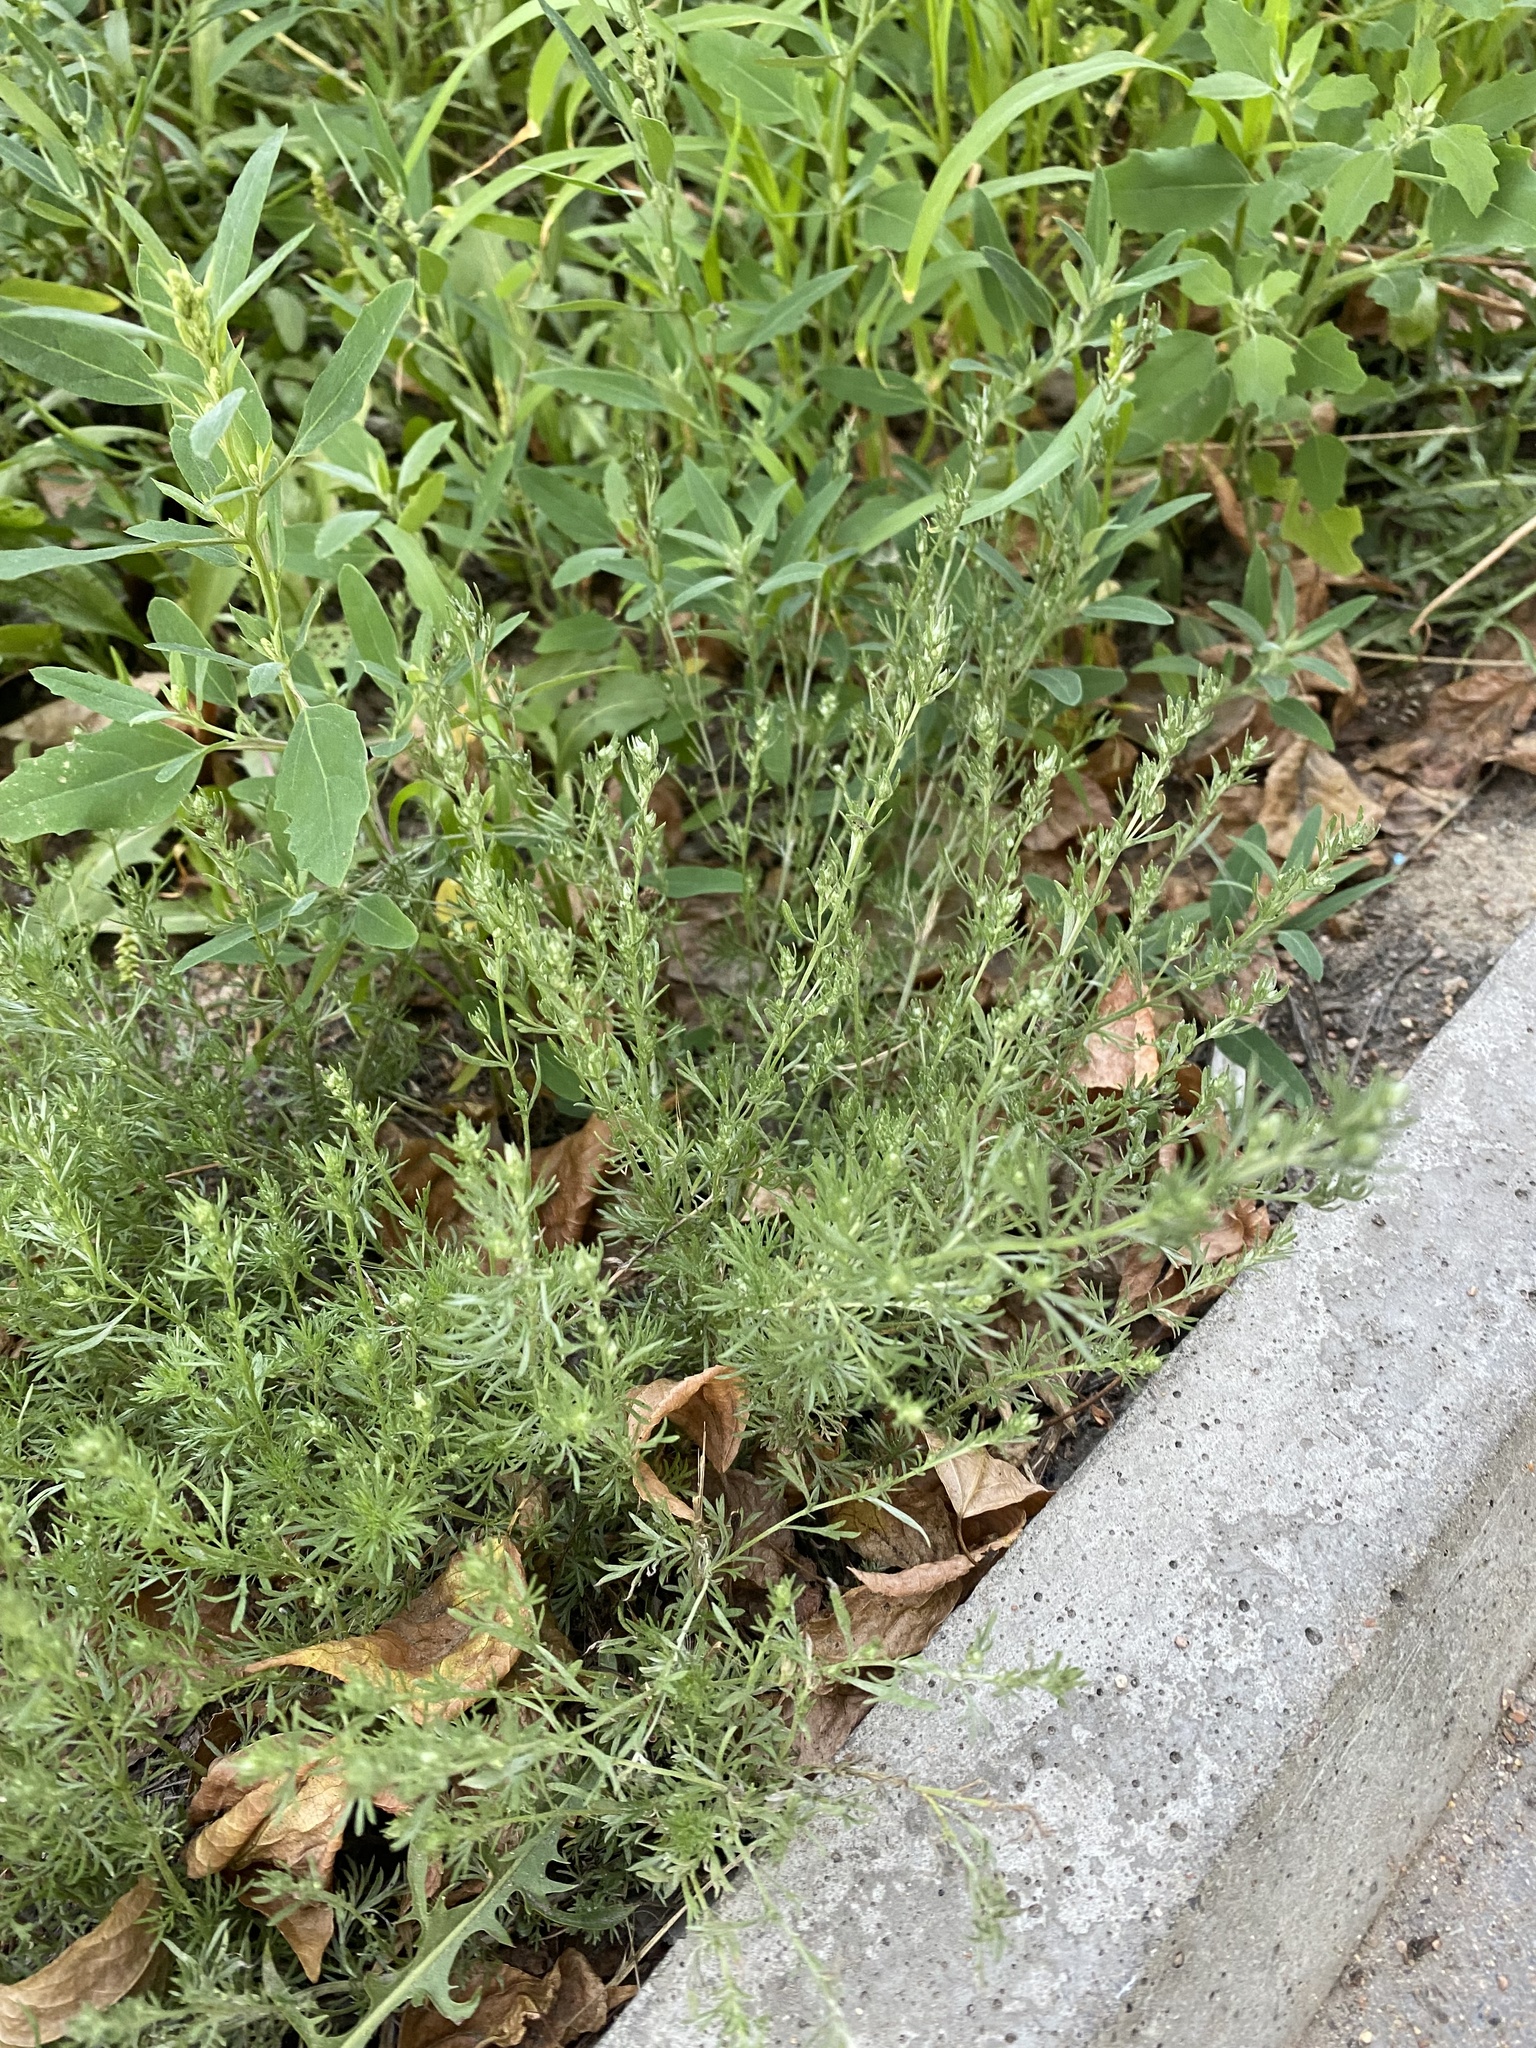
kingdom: Plantae
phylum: Tracheophyta
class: Magnoliopsida
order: Asterales
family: Asteraceae
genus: Artemisia
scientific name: Artemisia frigida
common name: Prairie sagewort
